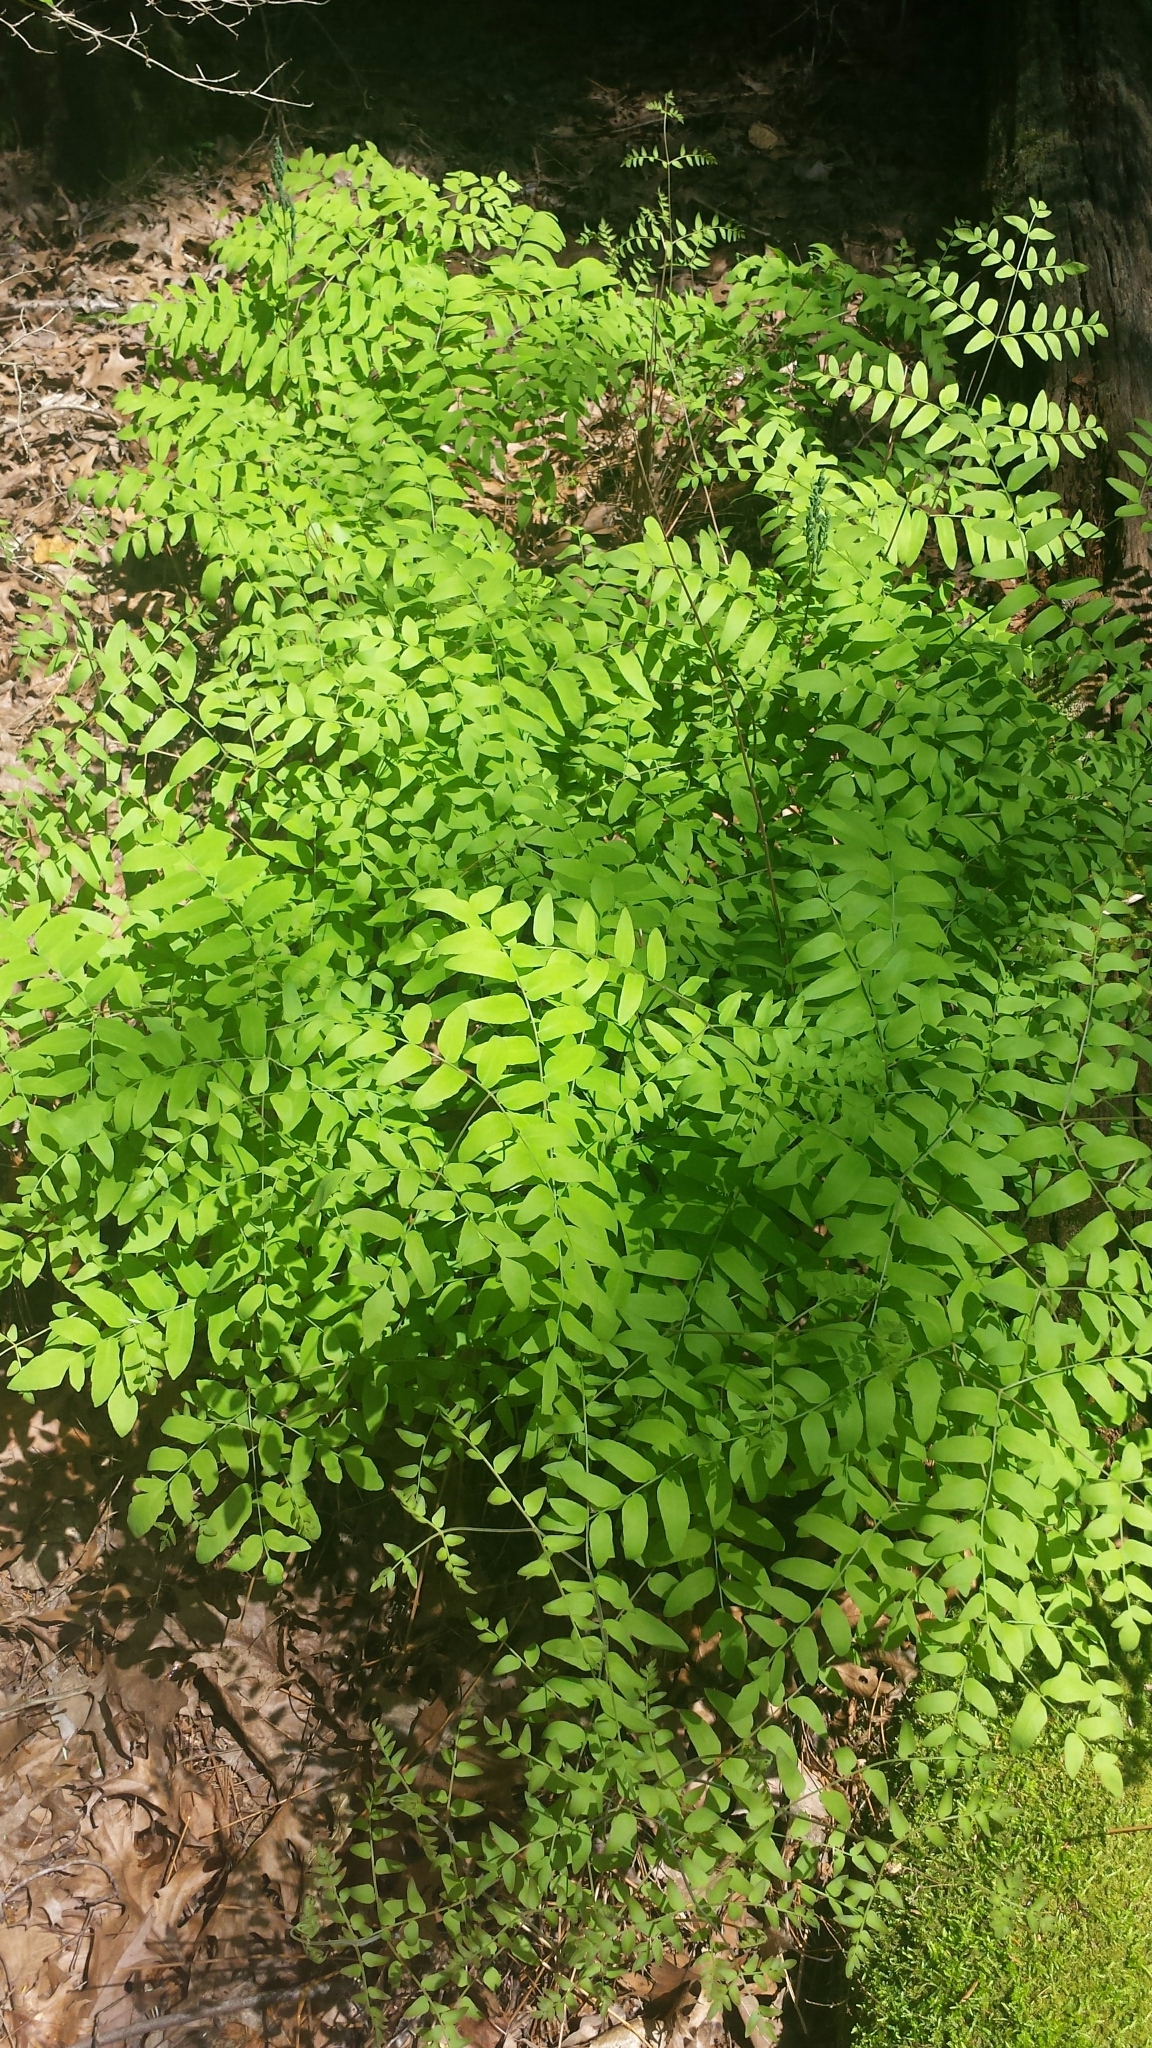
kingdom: Plantae
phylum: Tracheophyta
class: Polypodiopsida
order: Osmundales
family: Osmundaceae
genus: Osmunda
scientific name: Osmunda spectabilis
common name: American royal fern
